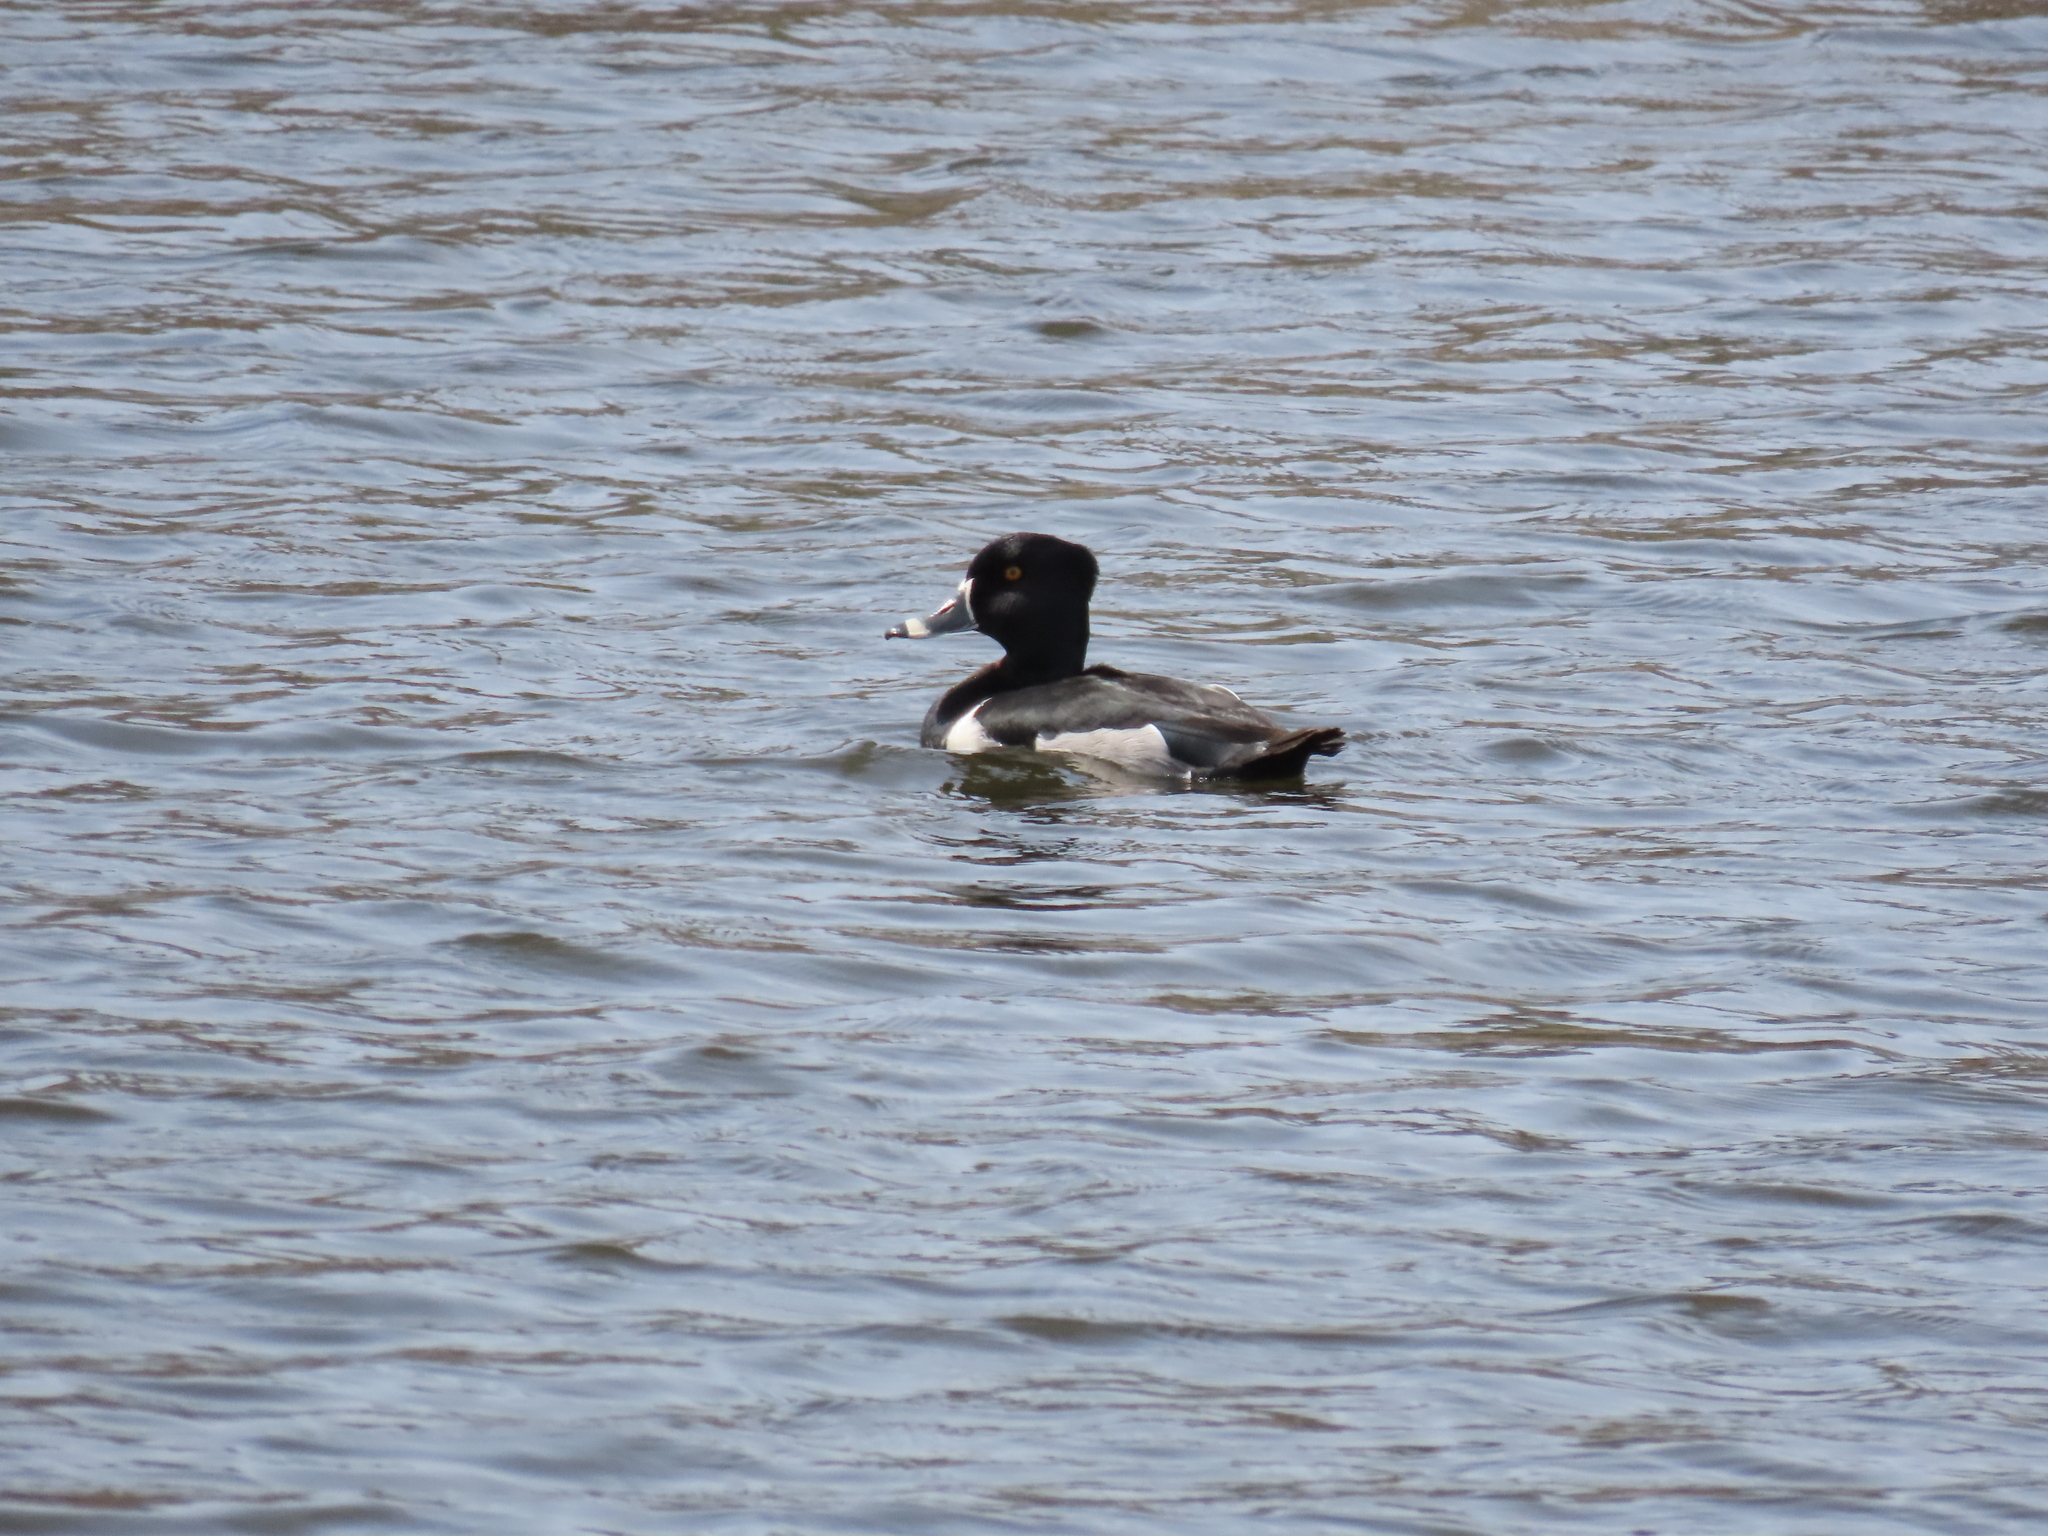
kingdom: Animalia
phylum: Chordata
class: Aves
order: Anseriformes
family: Anatidae
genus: Aythya
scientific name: Aythya collaris
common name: Ring-necked duck
